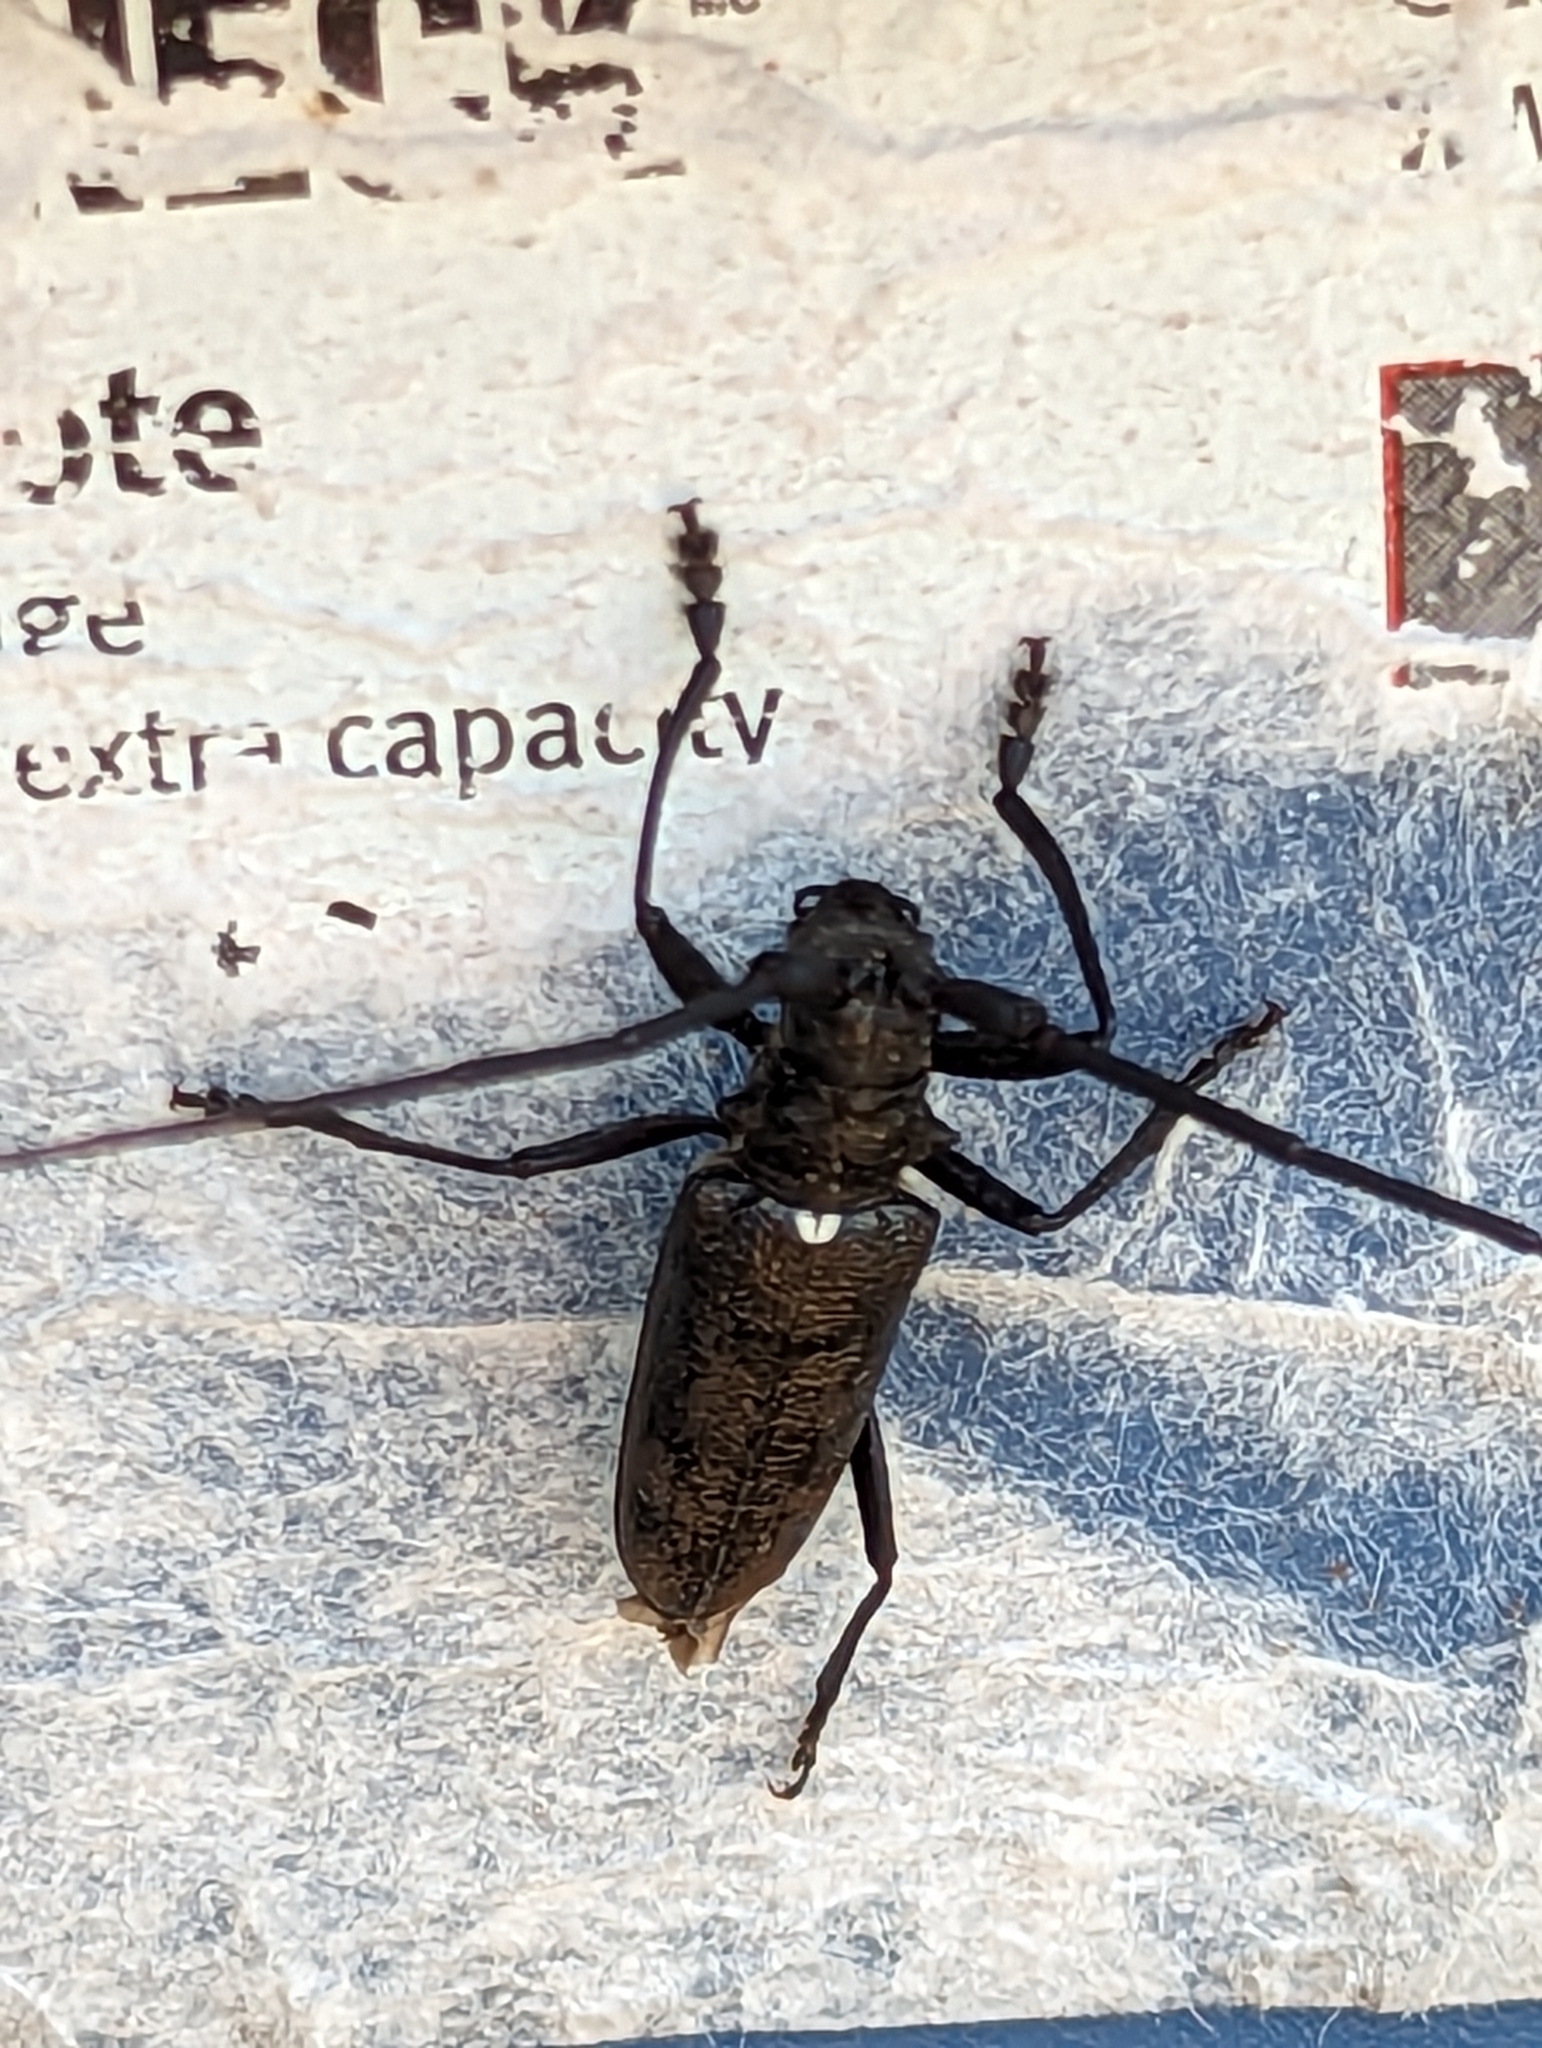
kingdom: Animalia
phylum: Arthropoda
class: Insecta
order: Coleoptera
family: Cerambycidae
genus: Monochamus
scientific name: Monochamus scutellatus
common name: White-spotted sawyer beetle
